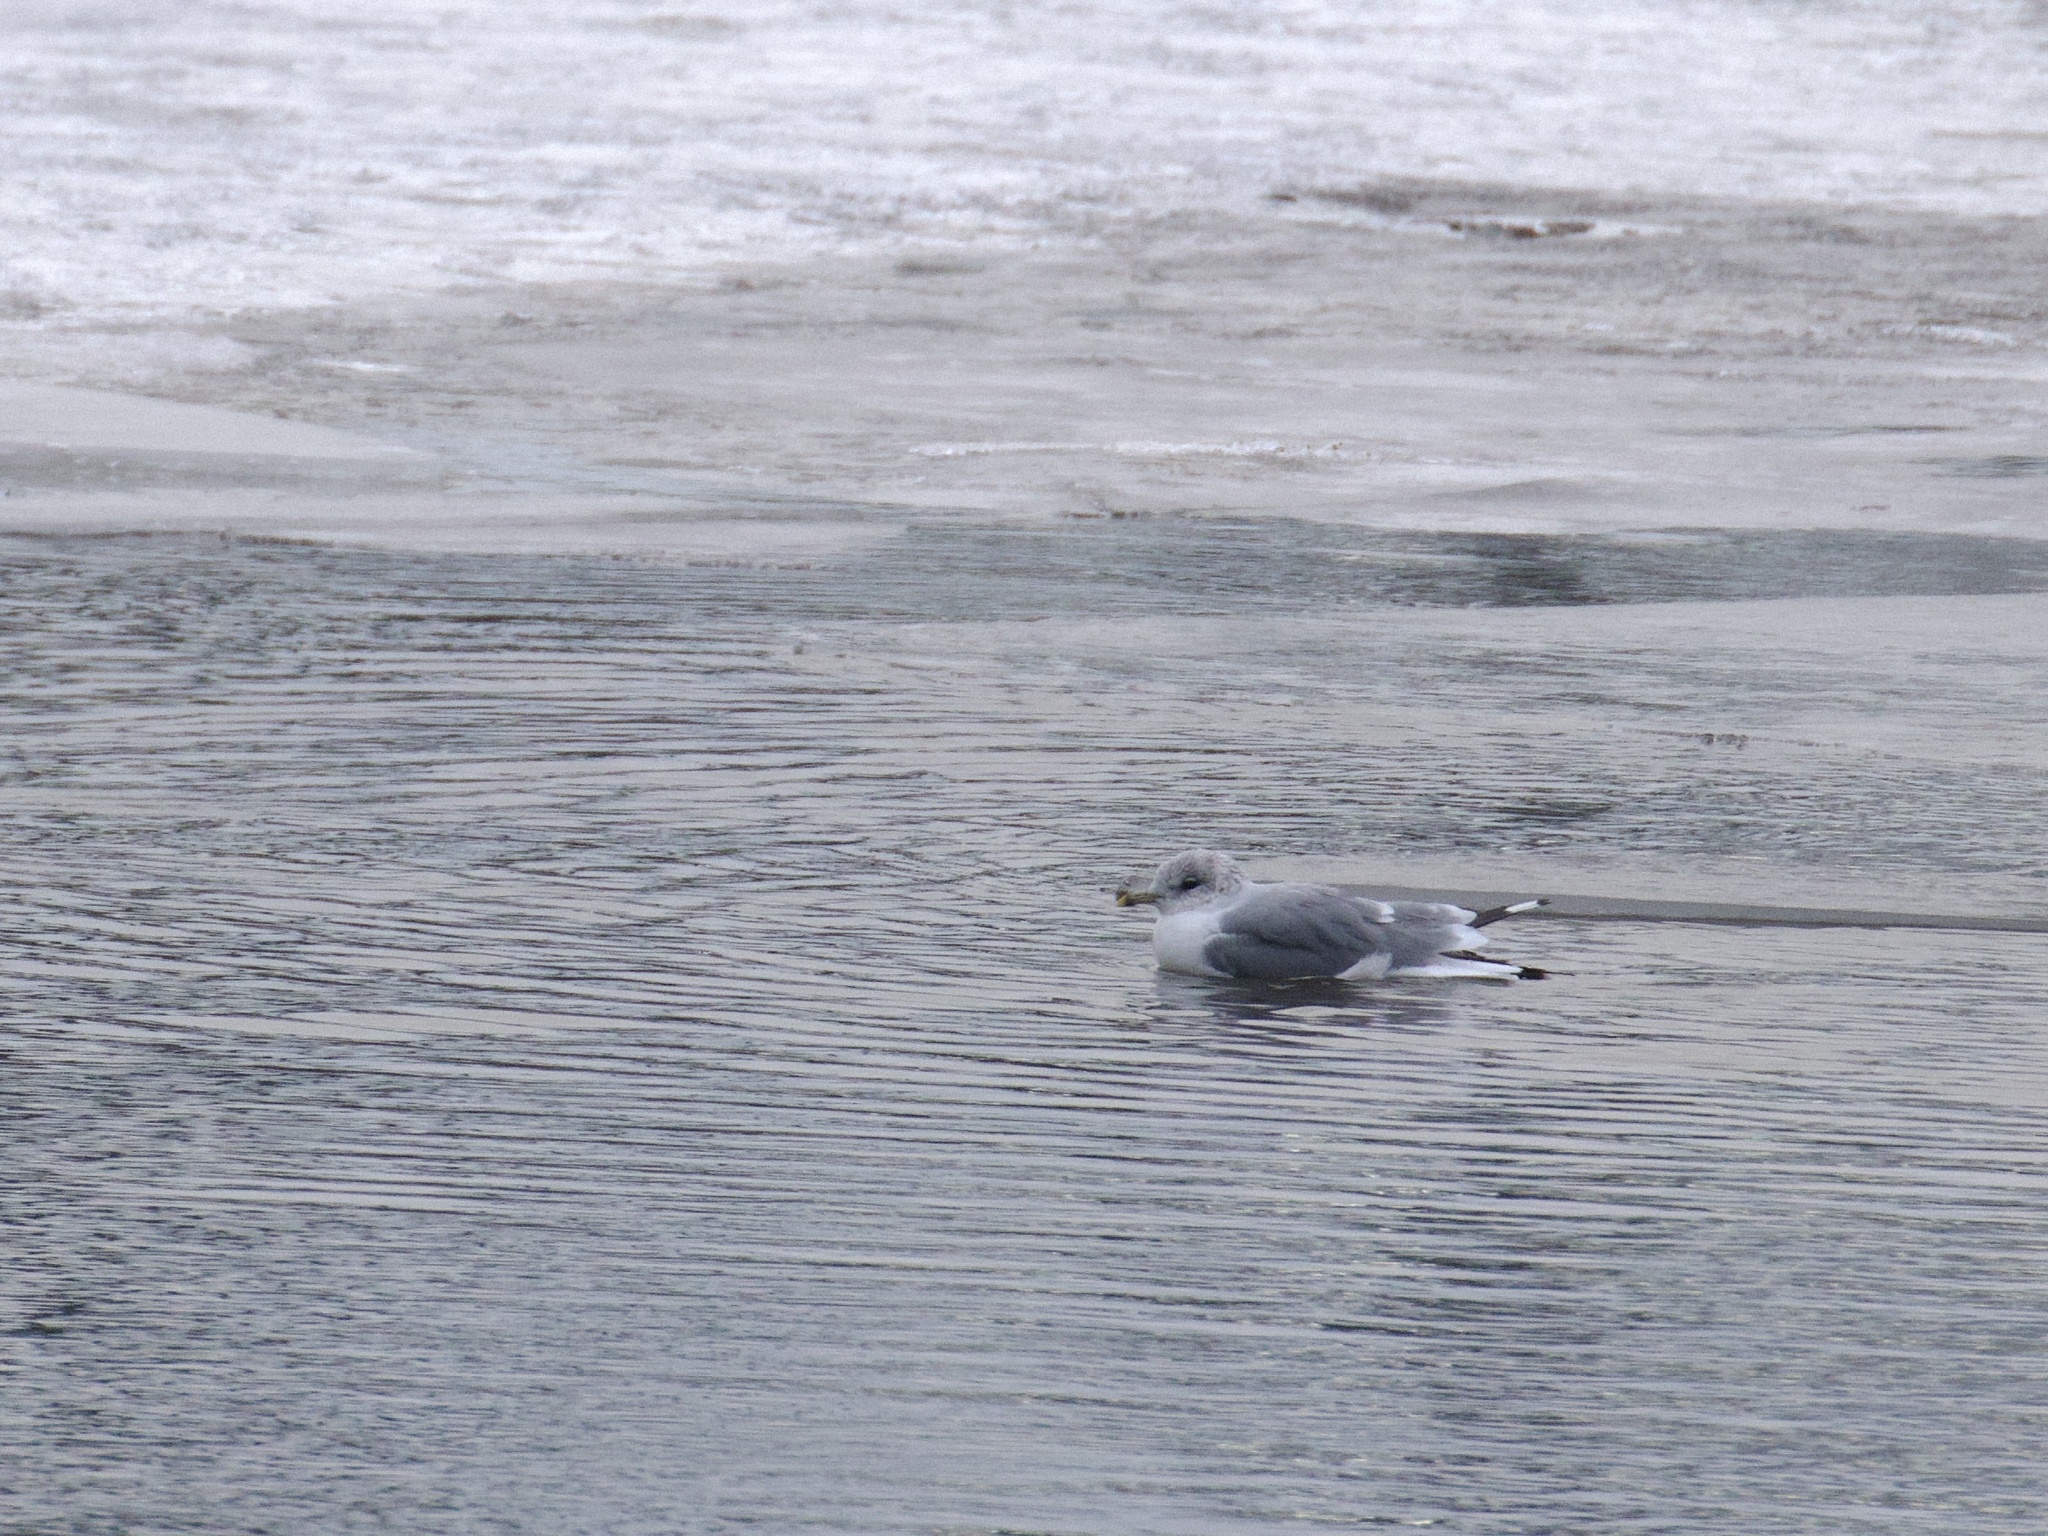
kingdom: Animalia
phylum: Chordata
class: Aves
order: Charadriiformes
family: Laridae
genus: Larus
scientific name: Larus canus
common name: Mew gull
